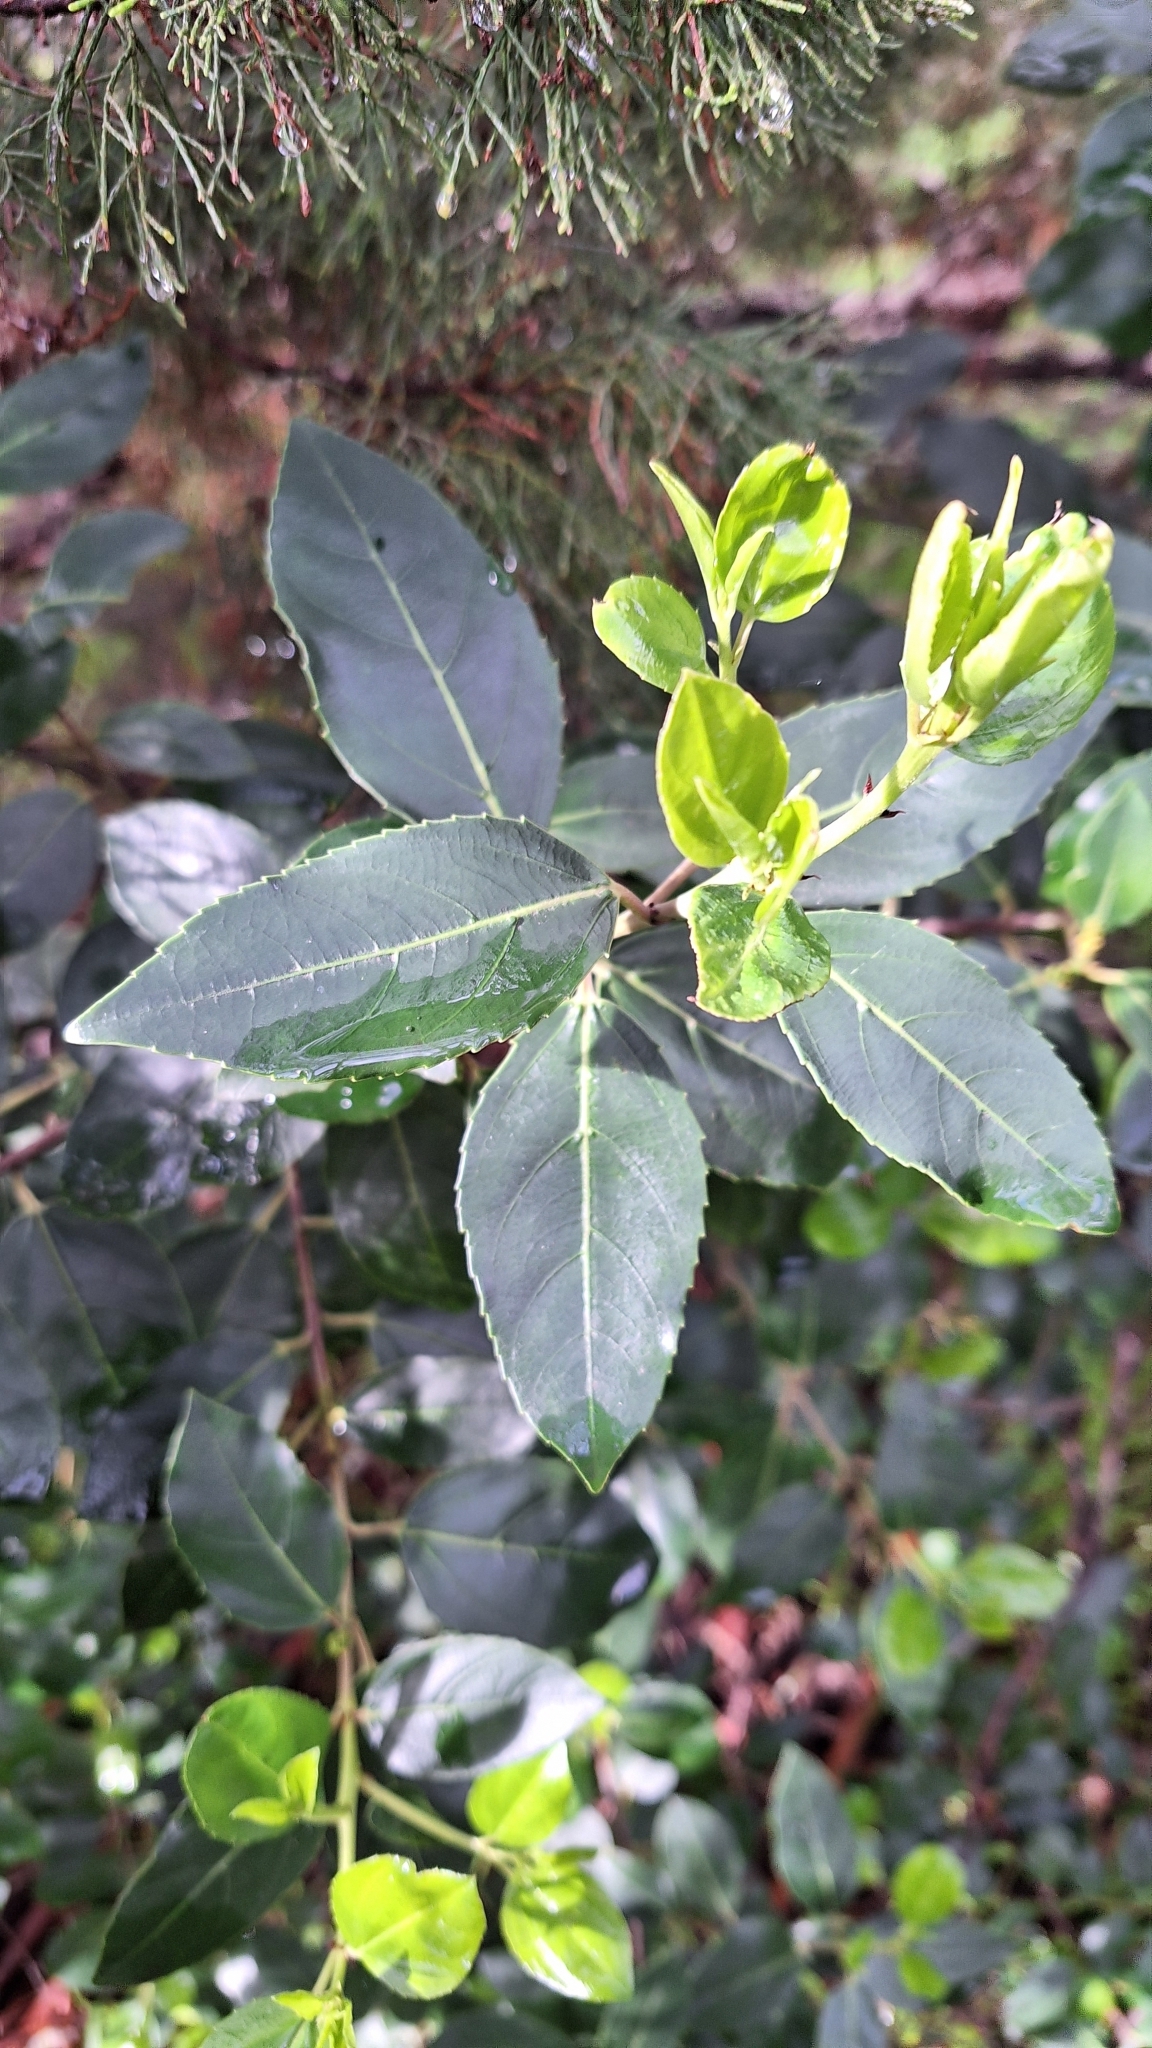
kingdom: Plantae
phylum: Tracheophyta
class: Magnoliopsida
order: Rosales
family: Rhamnaceae
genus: Rhamnus
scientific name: Rhamnus alaternus
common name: Mediterranean buckthorn
